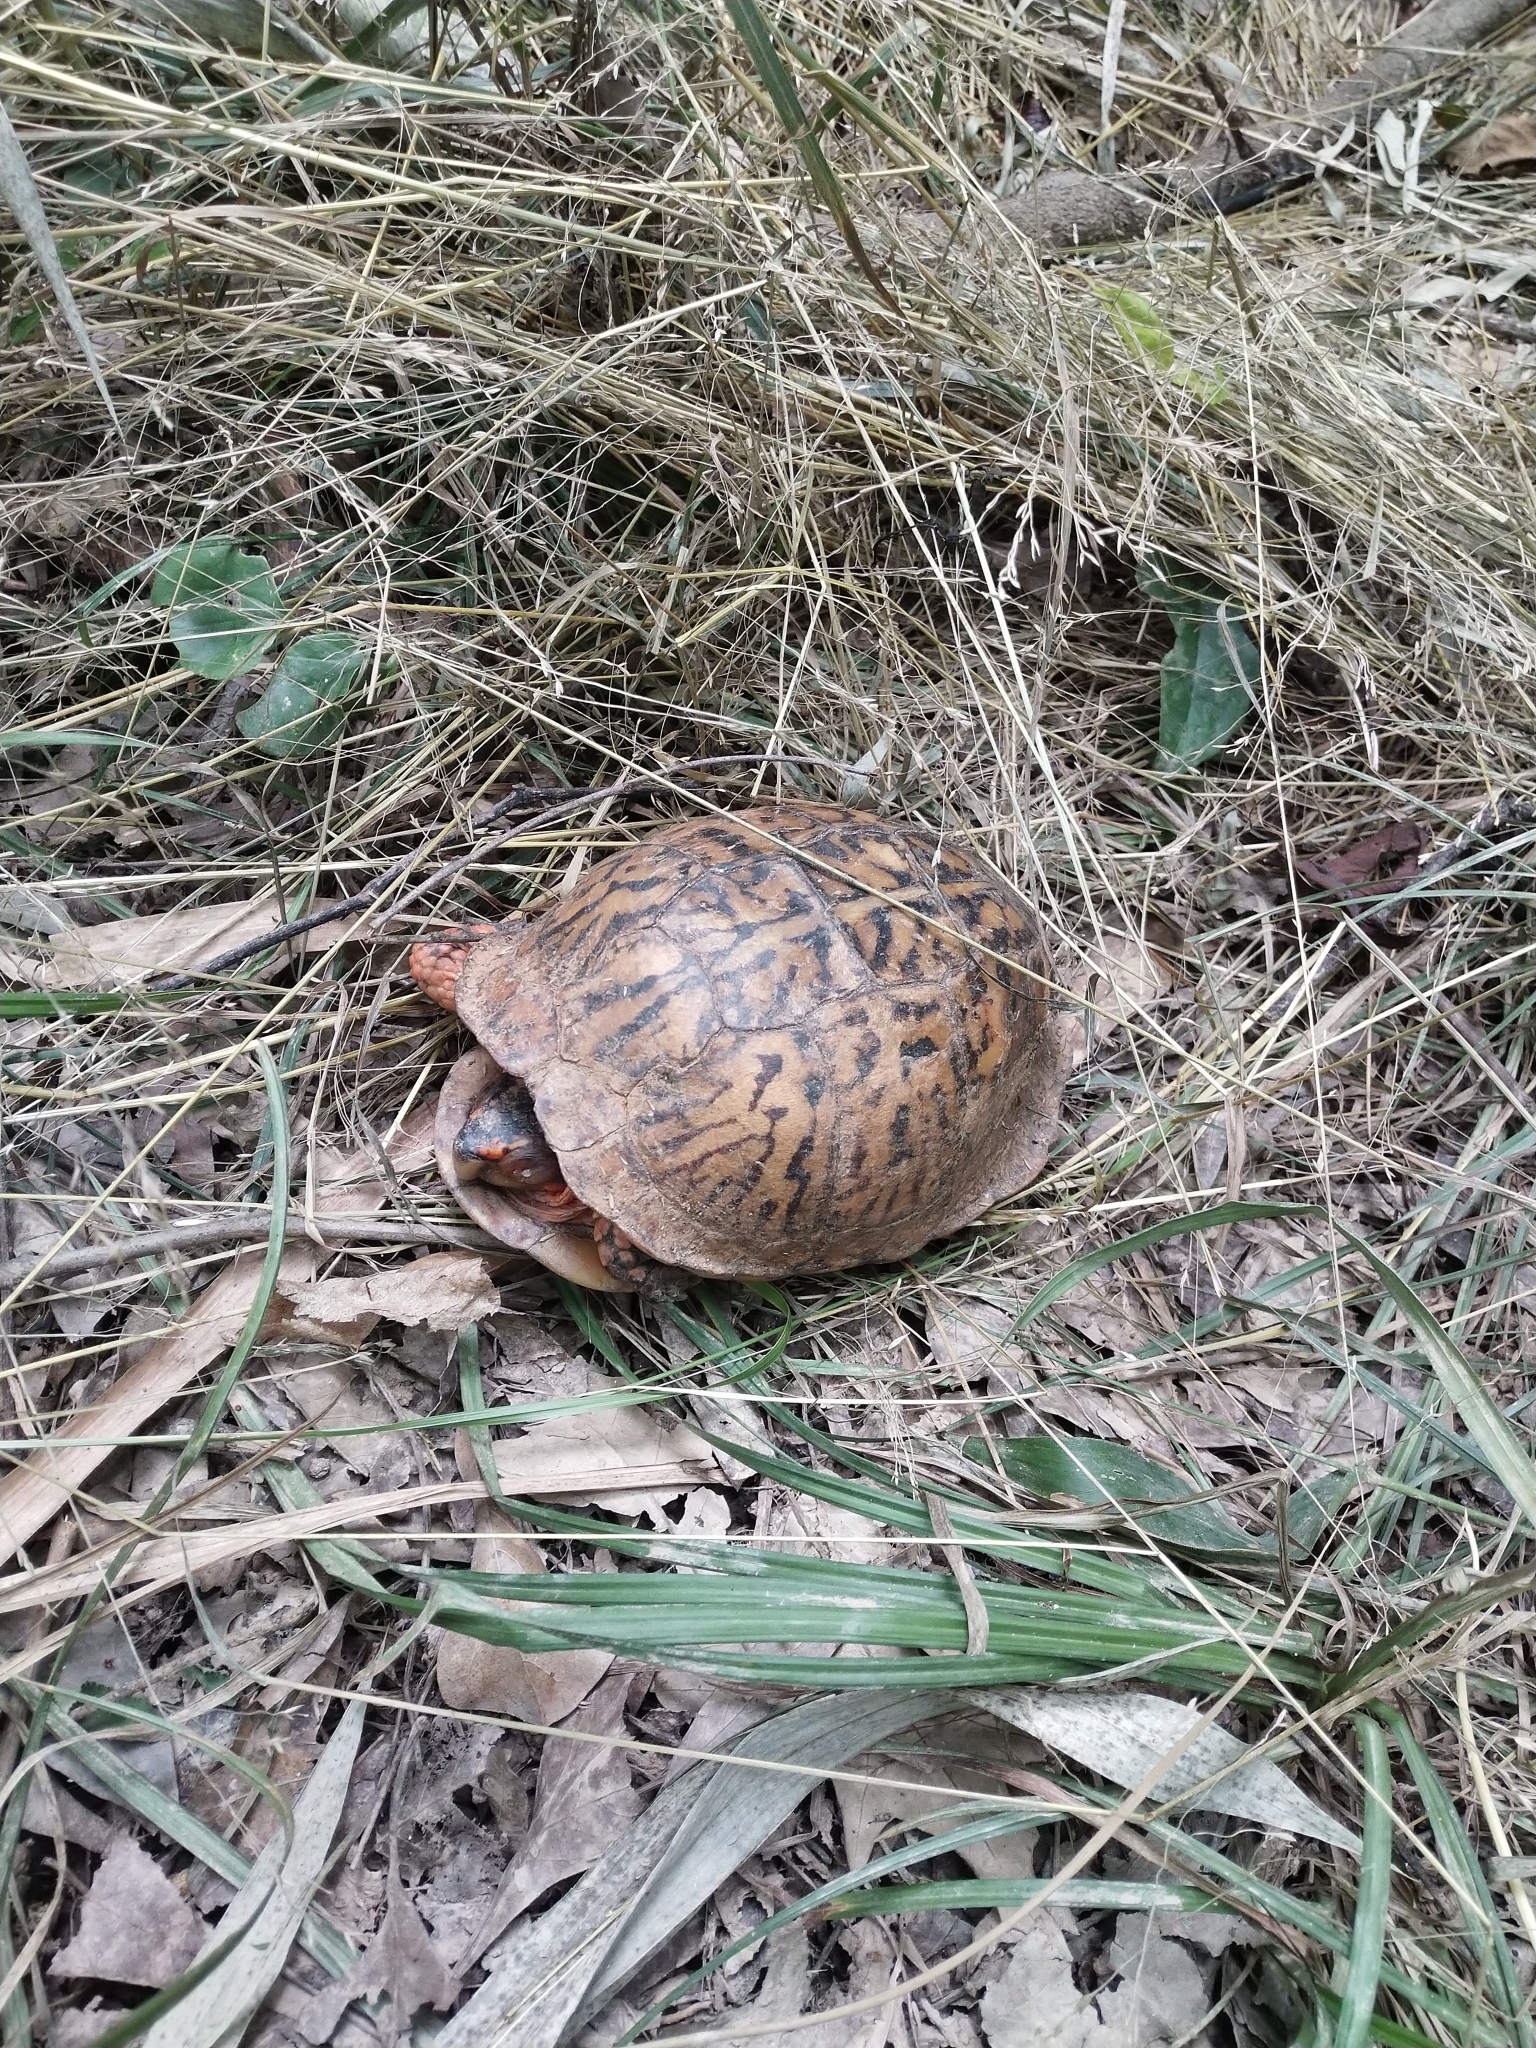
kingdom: Animalia
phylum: Chordata
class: Testudines
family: Emydidae
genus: Terrapene
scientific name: Terrapene carolina
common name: Common box turtle
